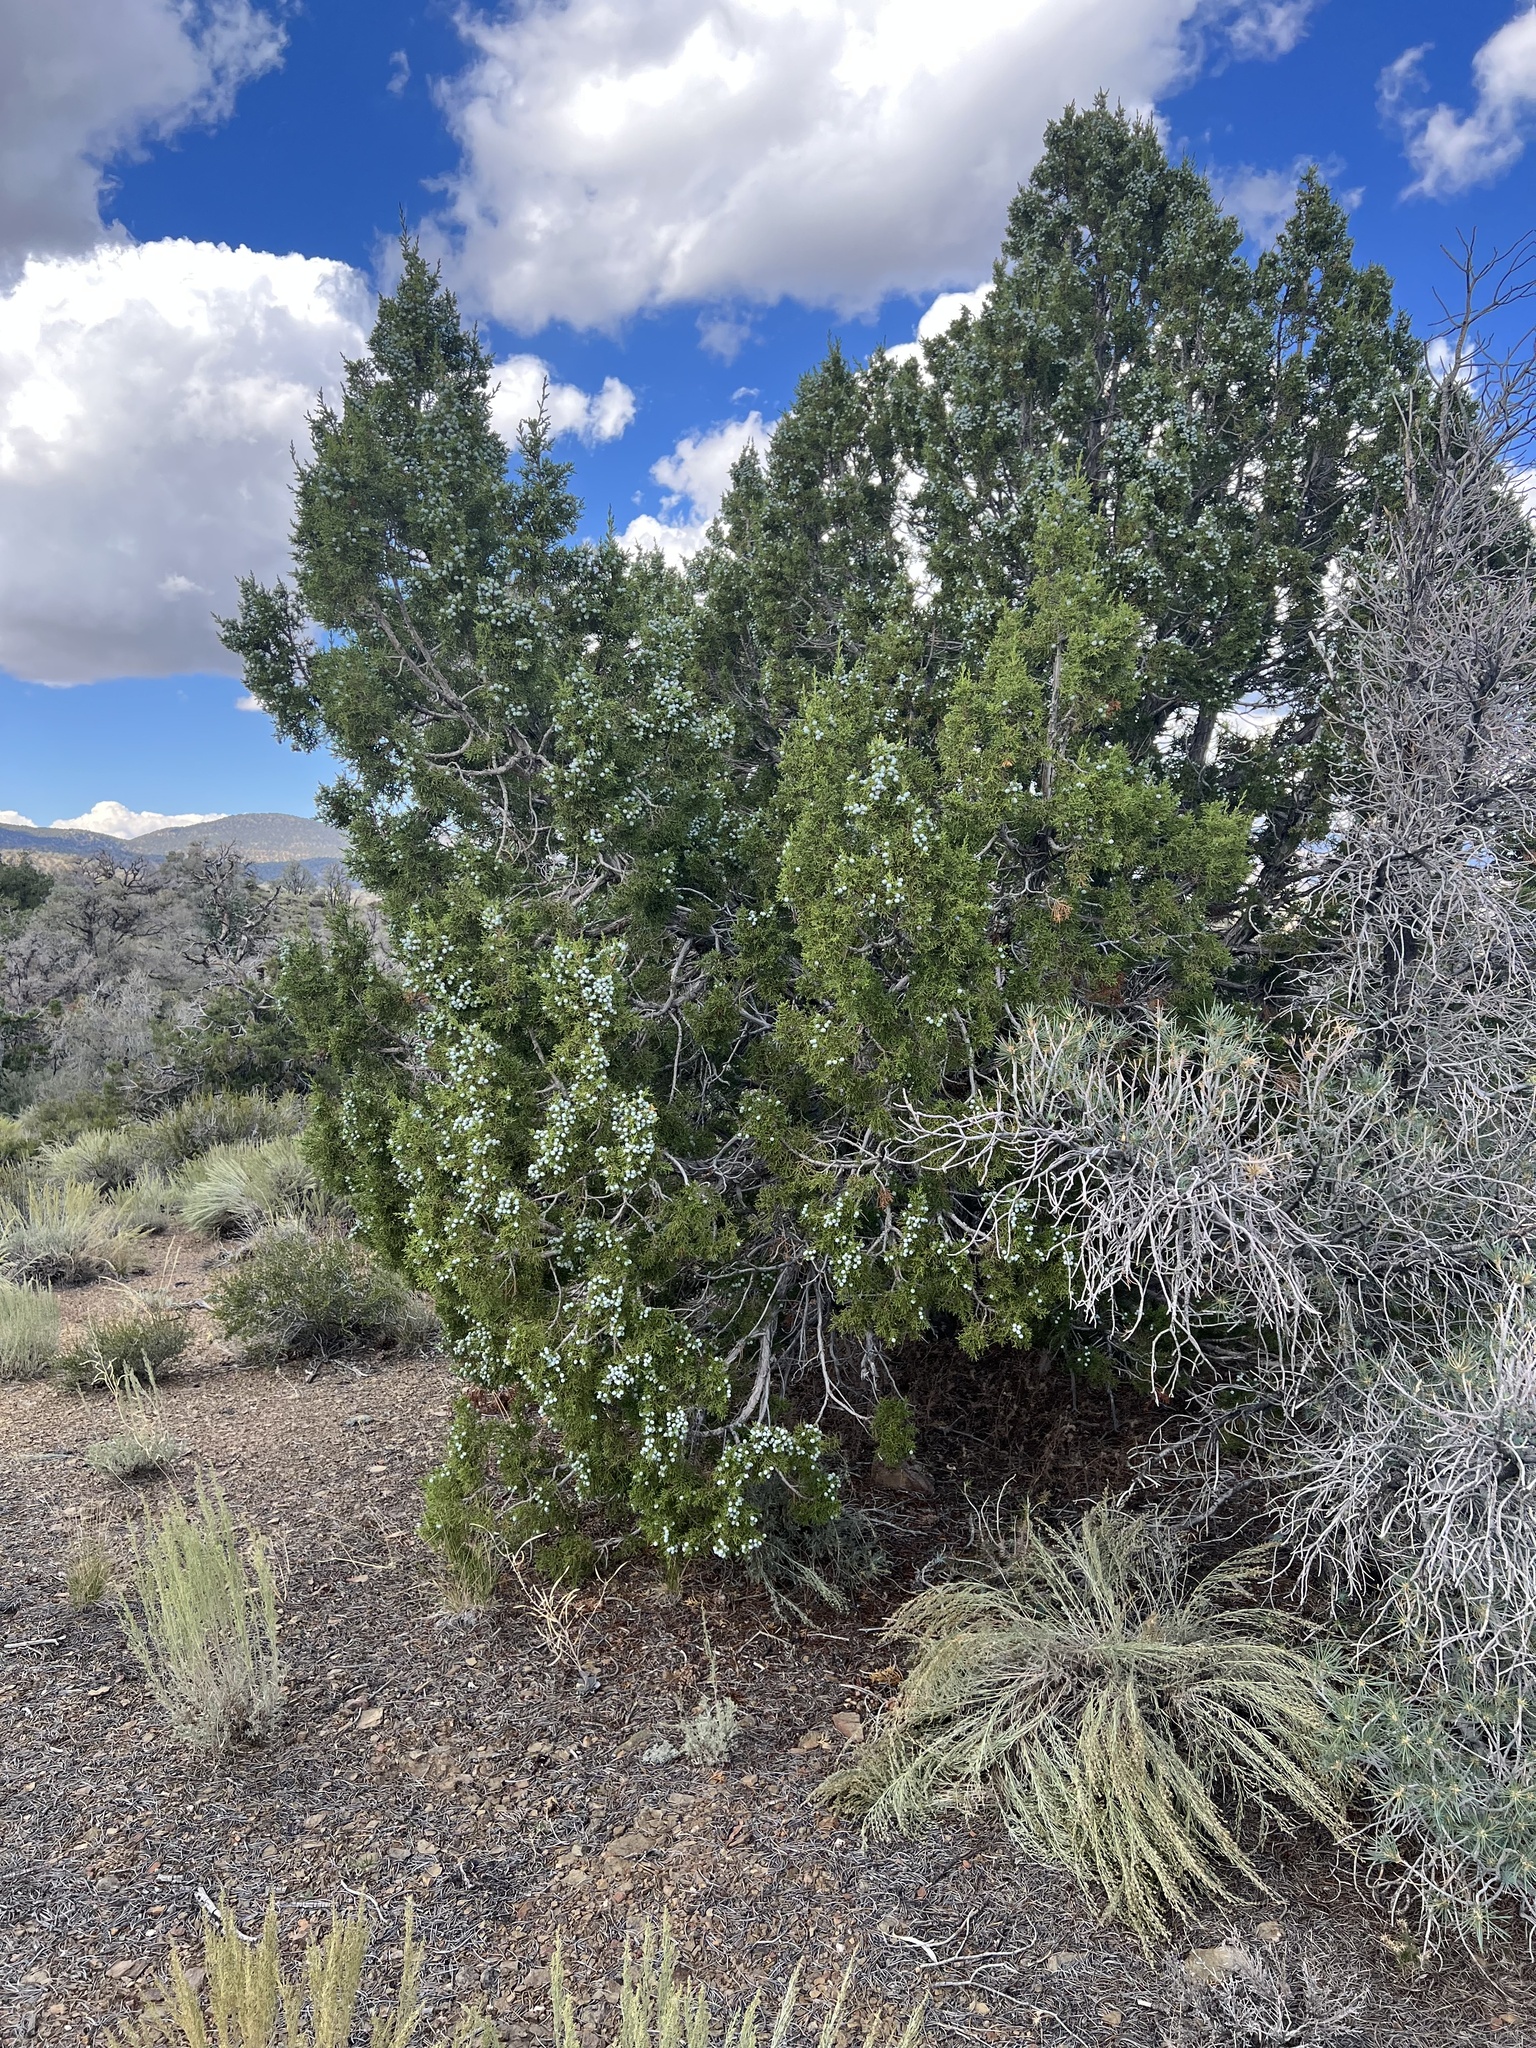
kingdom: Plantae
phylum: Tracheophyta
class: Pinopsida
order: Pinales
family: Cupressaceae
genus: Juniperus
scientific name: Juniperus osteosperma
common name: Utah juniper
